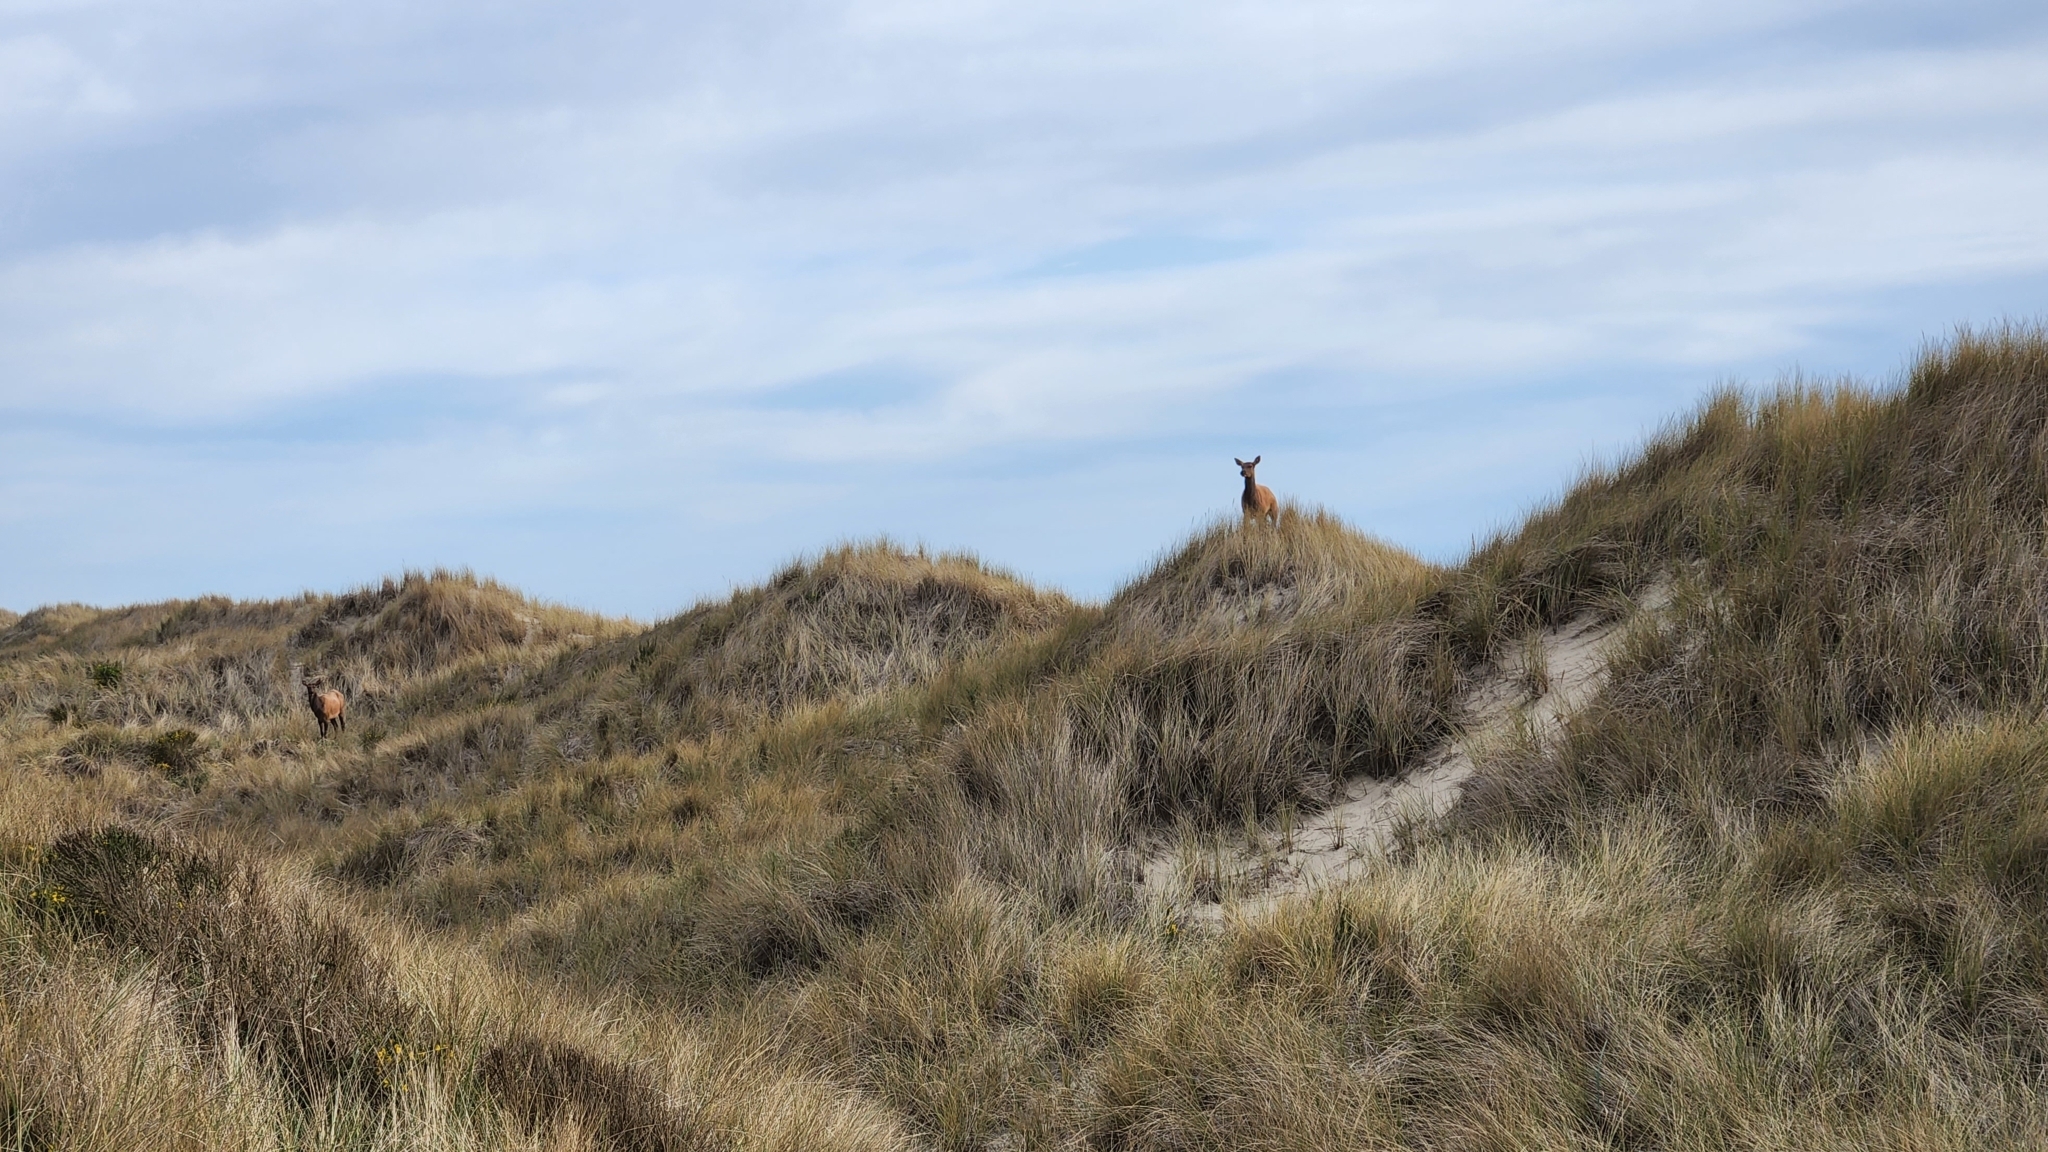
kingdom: Animalia
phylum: Chordata
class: Mammalia
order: Artiodactyla
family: Cervidae
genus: Cervus
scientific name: Cervus elaphus
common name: Red deer
